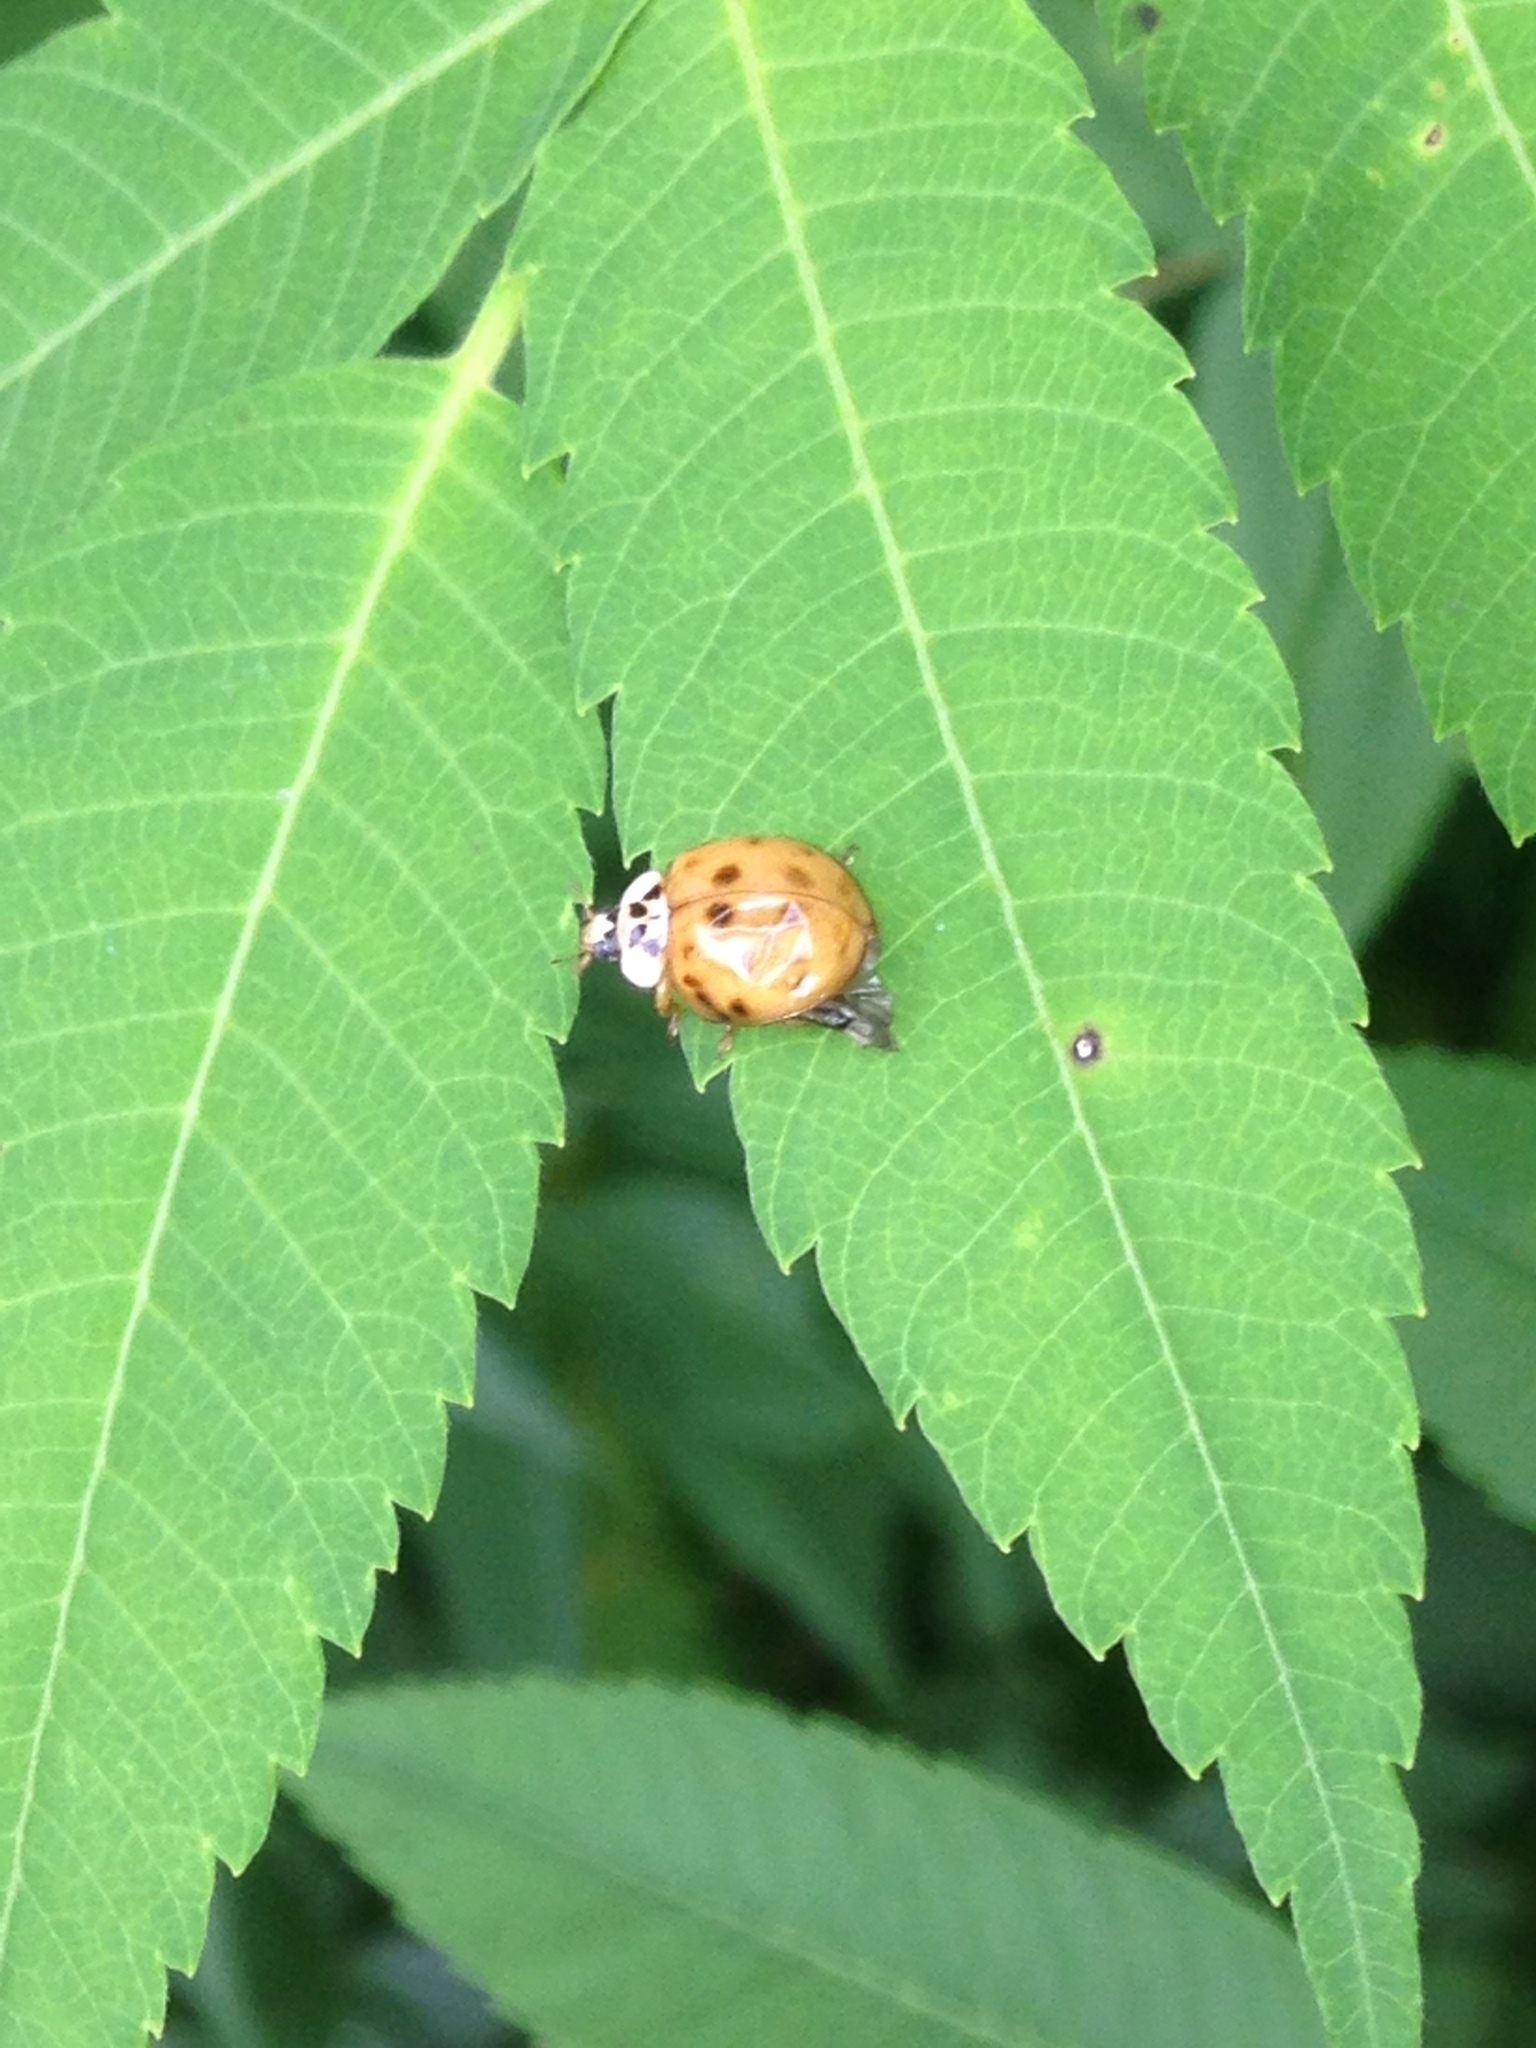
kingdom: Animalia
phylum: Arthropoda
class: Insecta
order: Coleoptera
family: Coccinellidae
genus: Harmonia
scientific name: Harmonia axyridis
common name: Harlequin ladybird
